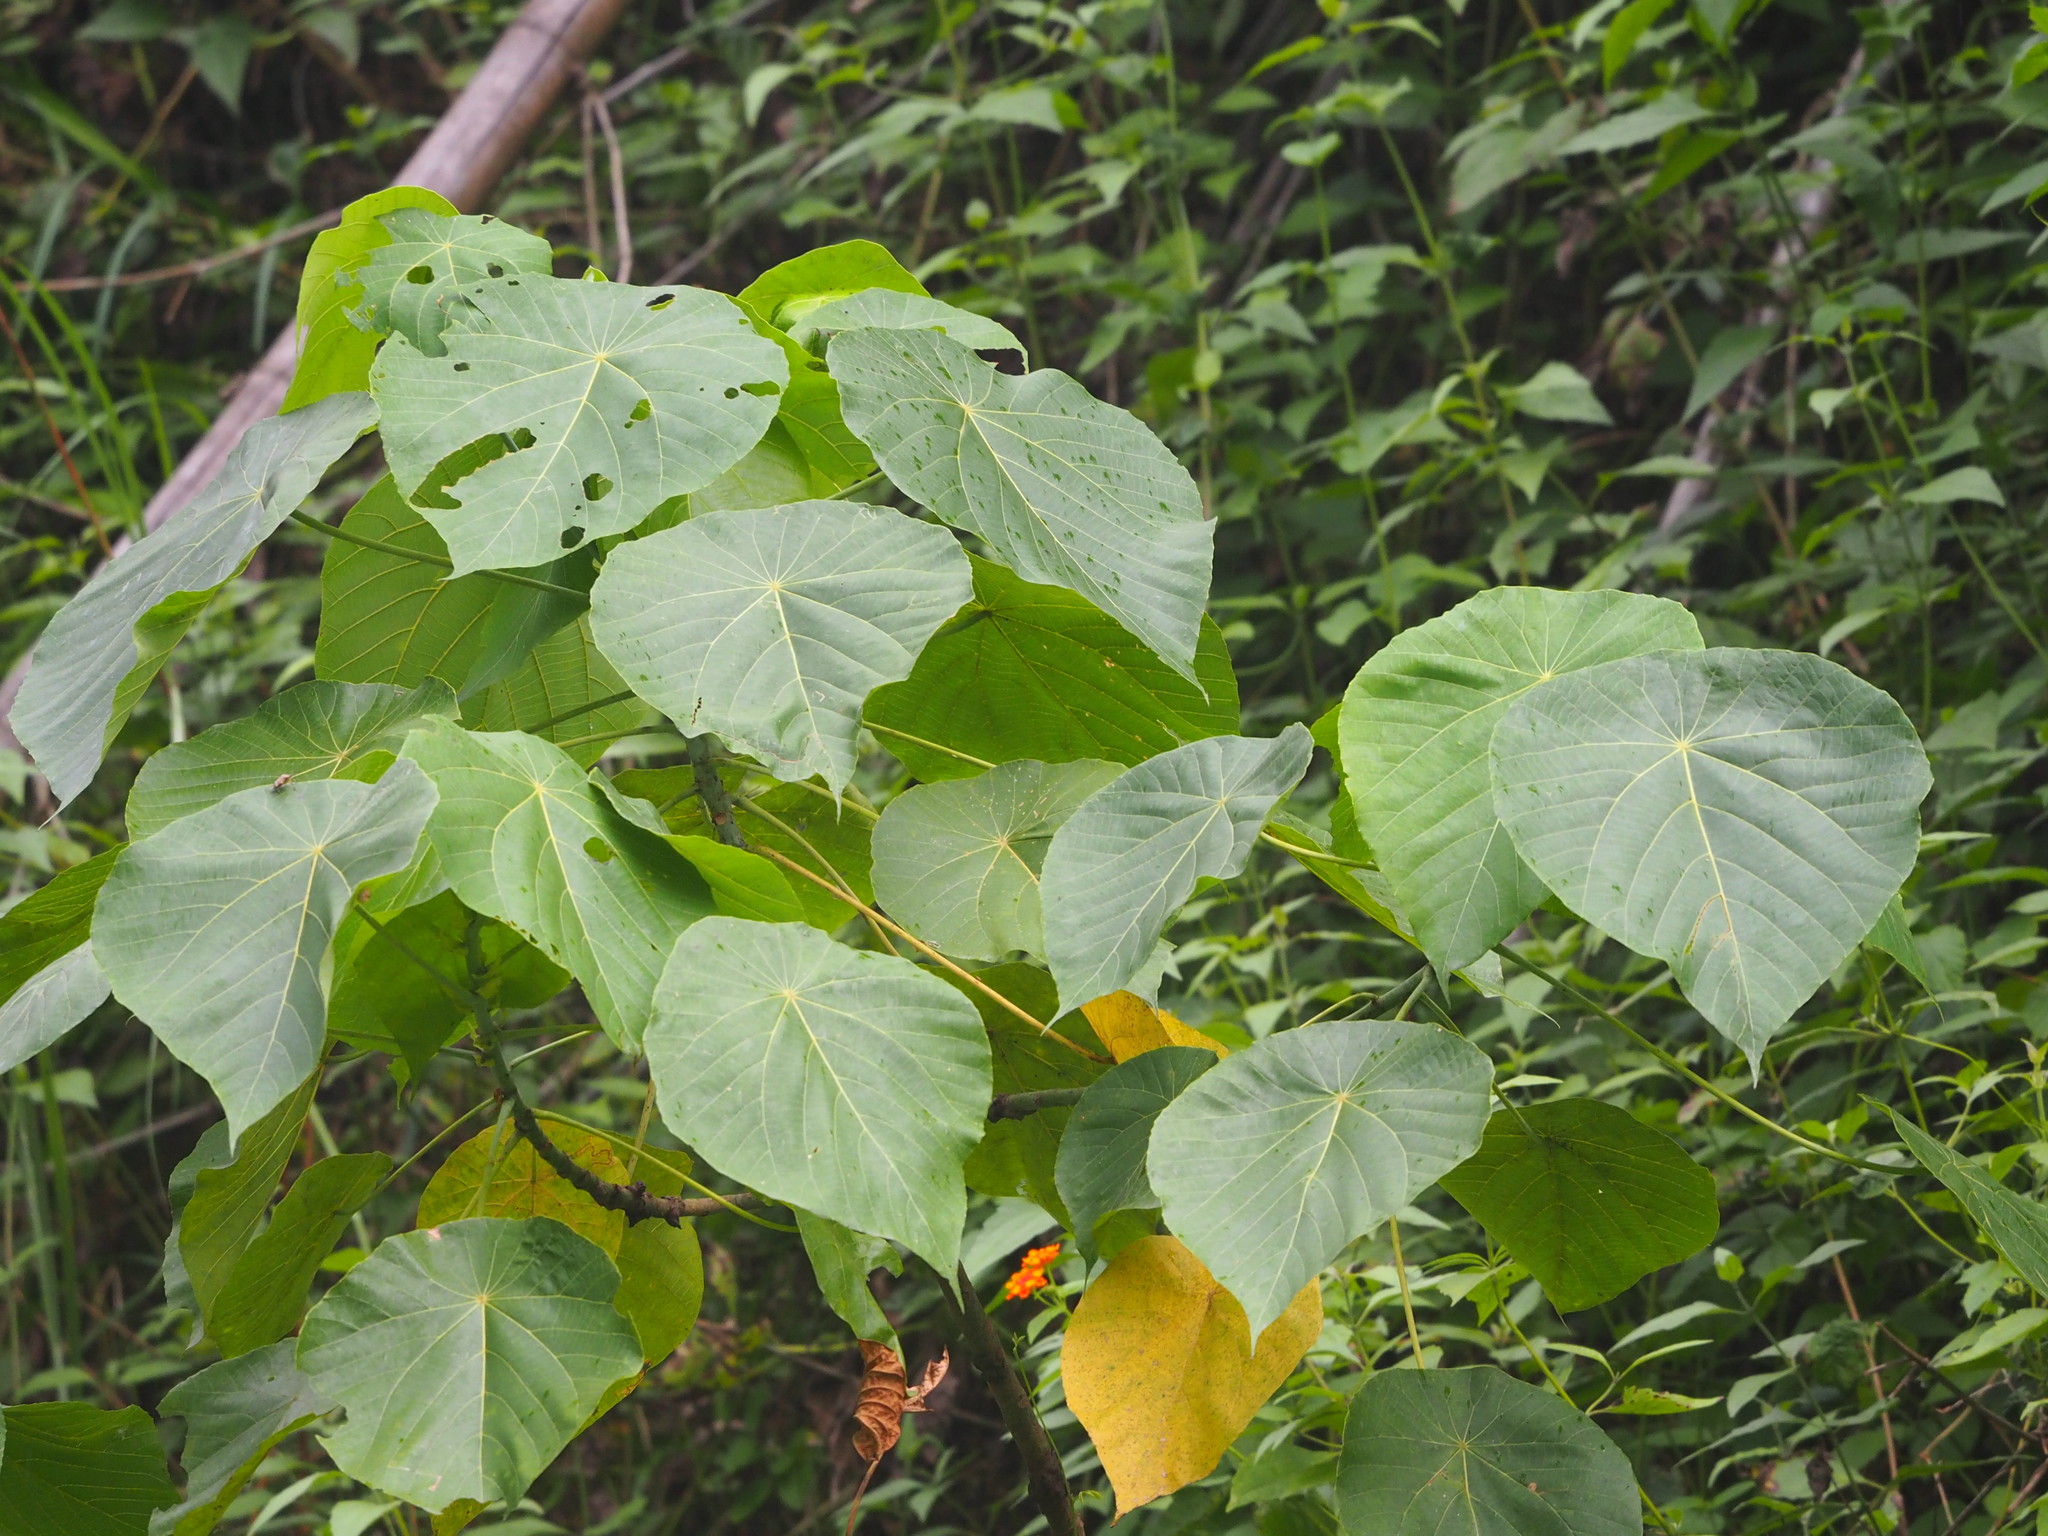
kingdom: Plantae
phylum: Tracheophyta
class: Magnoliopsida
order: Malpighiales
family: Euphorbiaceae
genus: Macaranga
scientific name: Macaranga tanarius
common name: Parasol leaf tree
